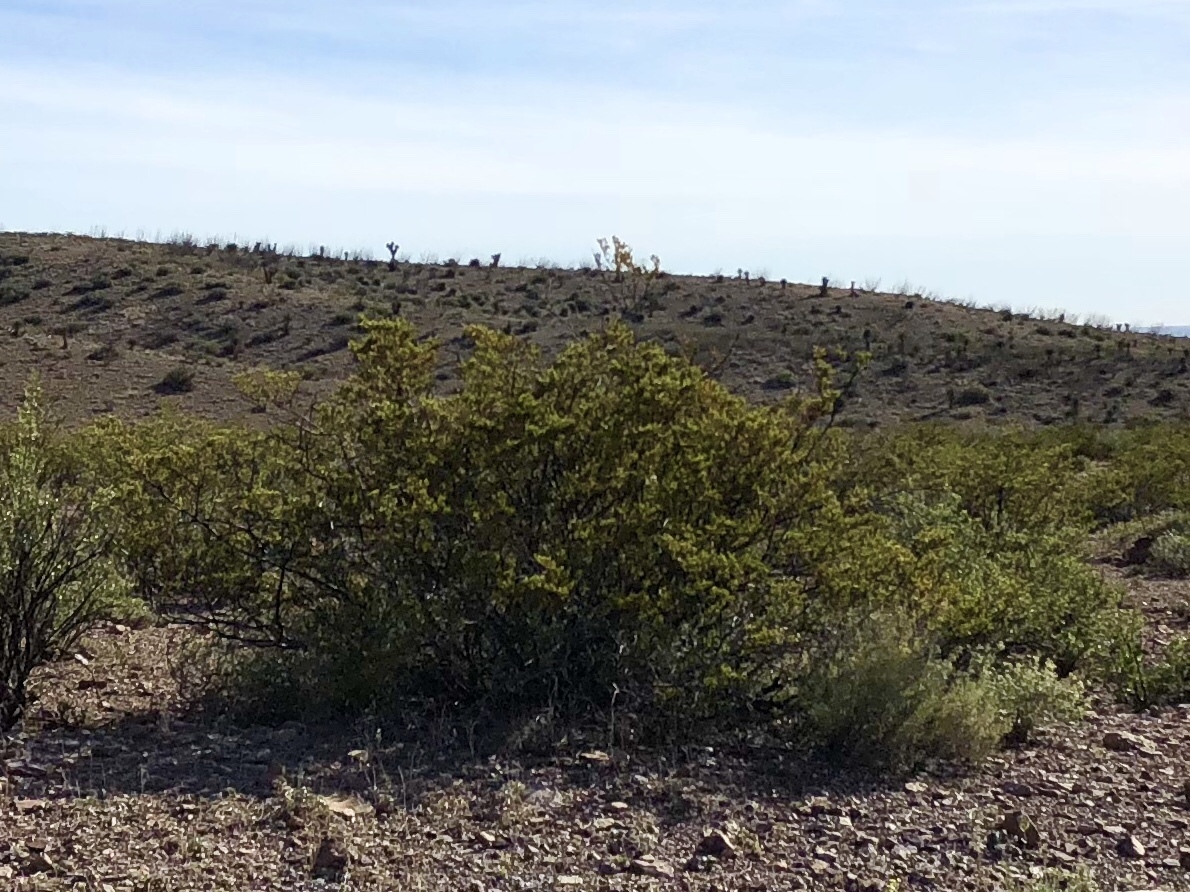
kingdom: Plantae
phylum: Tracheophyta
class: Magnoliopsida
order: Zygophyllales
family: Zygophyllaceae
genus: Larrea
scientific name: Larrea tridentata
